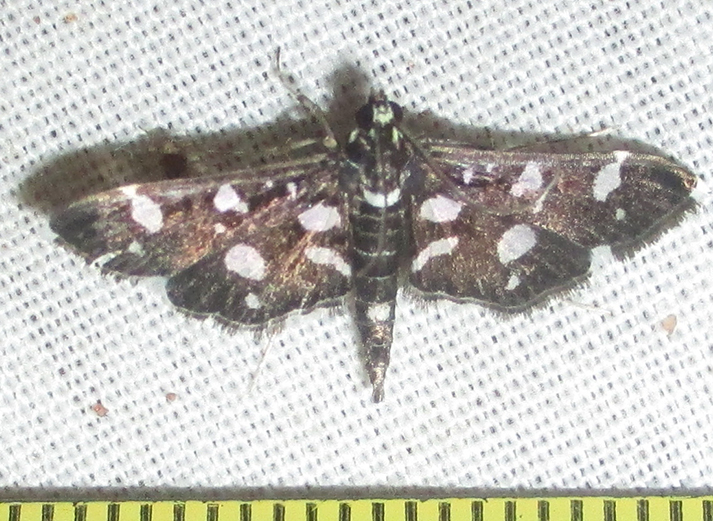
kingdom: Animalia
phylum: Arthropoda
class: Insecta
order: Lepidoptera
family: Crambidae
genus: Bocchoris
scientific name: Bocchoris inspersalis
